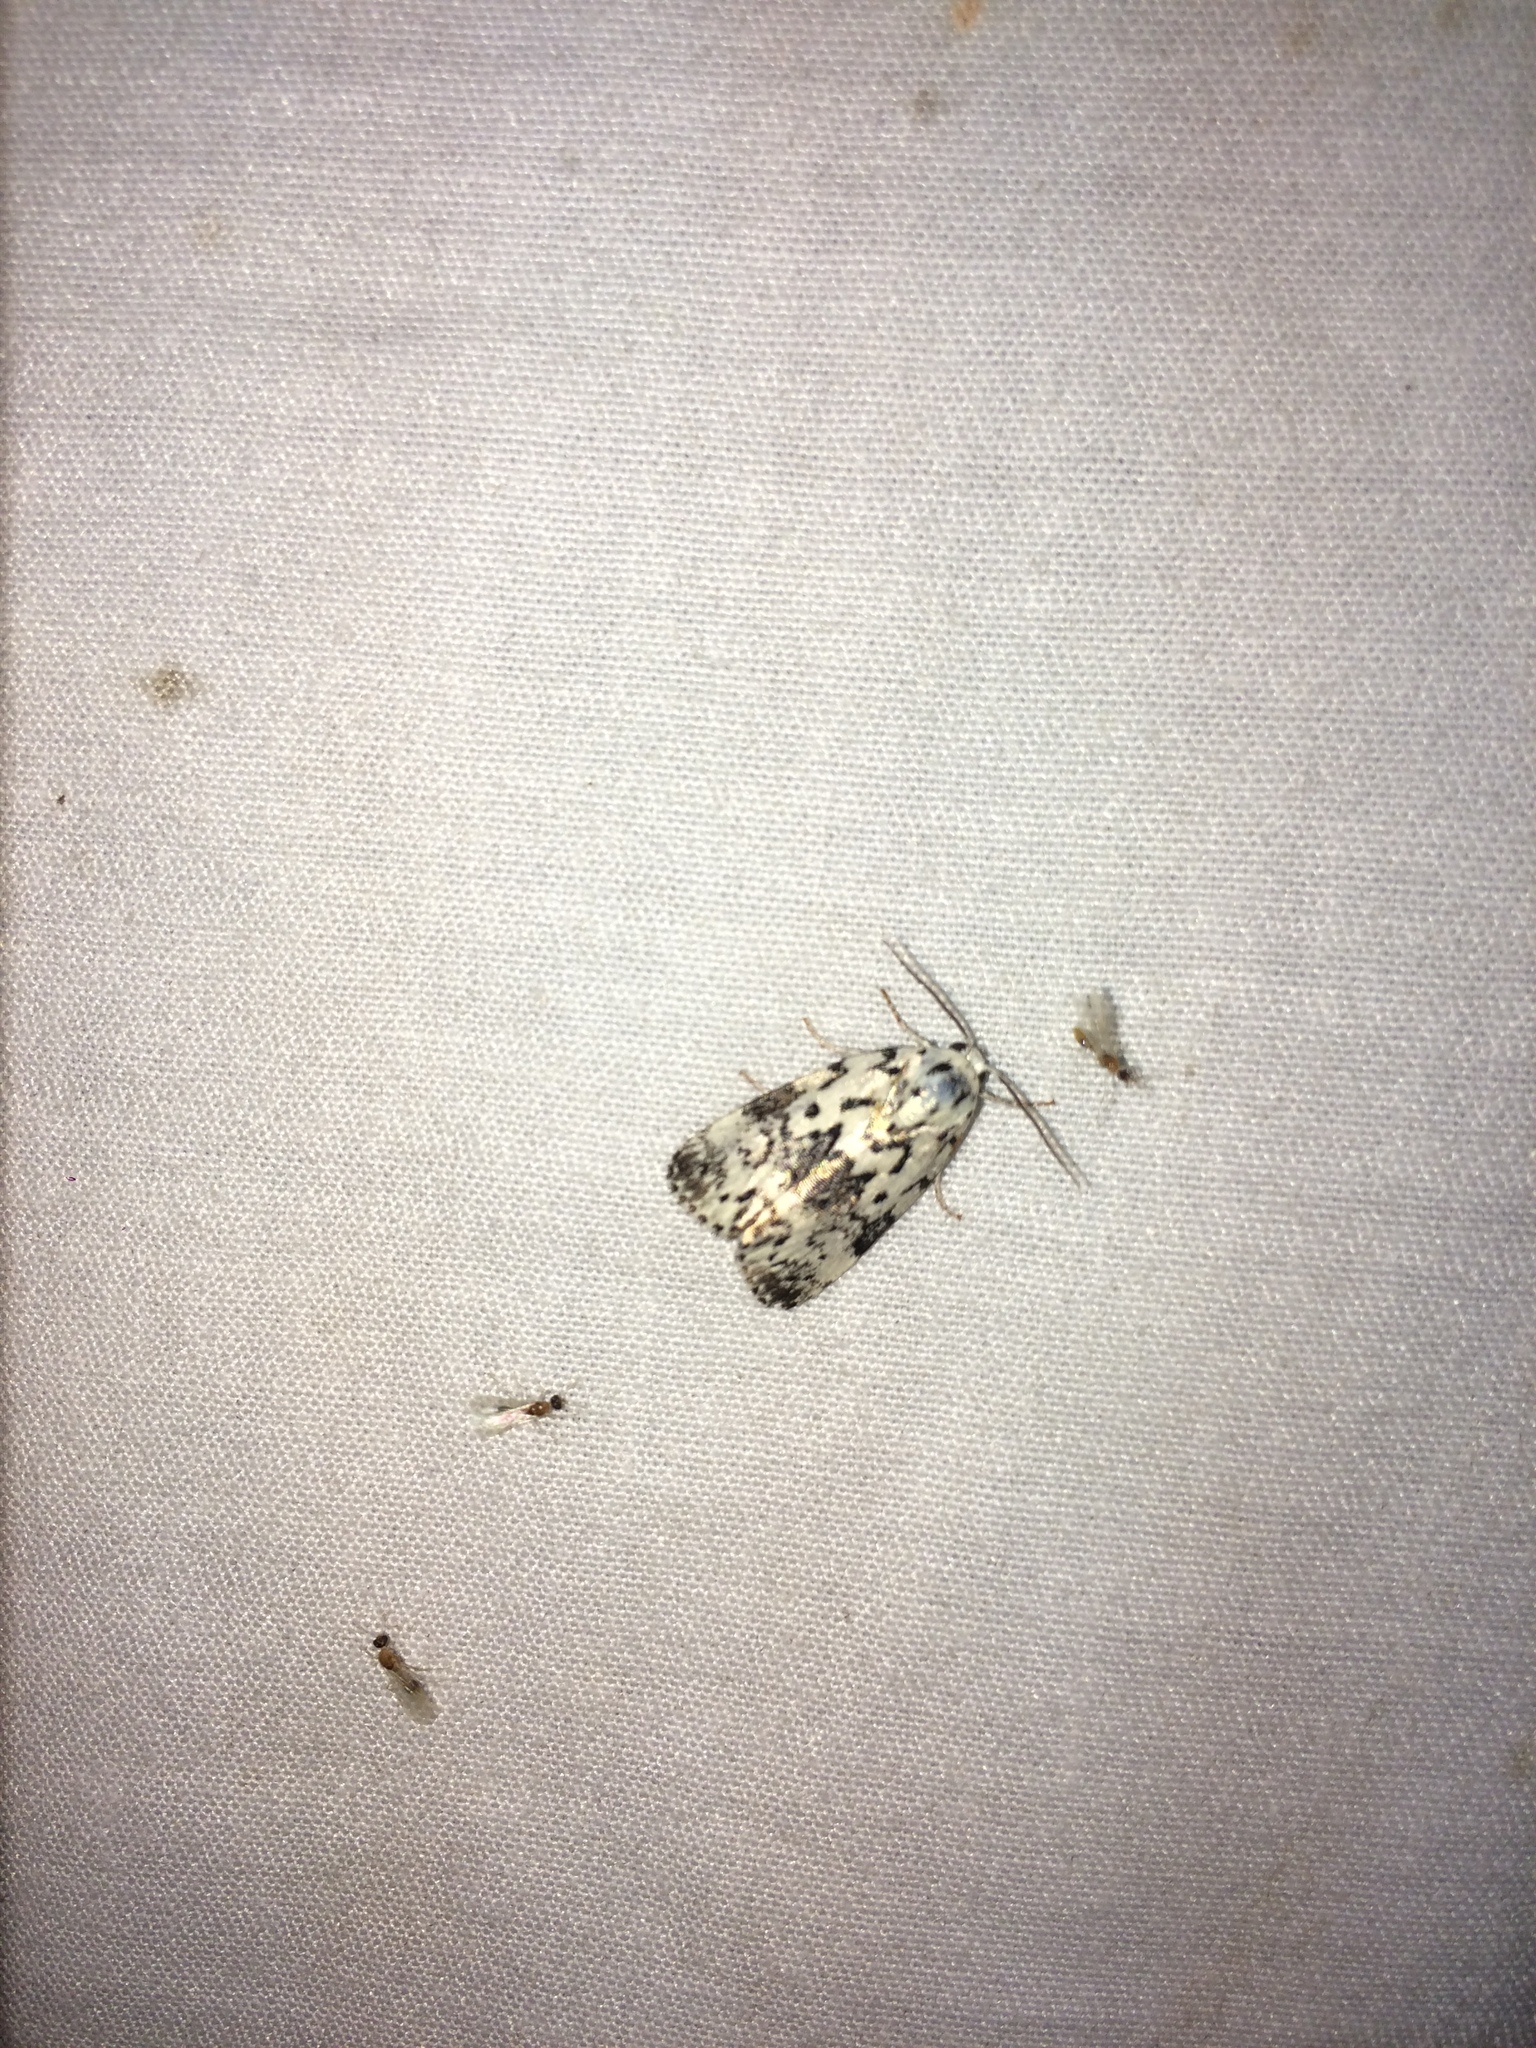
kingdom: Animalia
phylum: Arthropoda
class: Insecta
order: Lepidoptera
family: Noctuidae
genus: Polygrammate
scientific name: Polygrammate hebraeicum
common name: Hebrew moth
